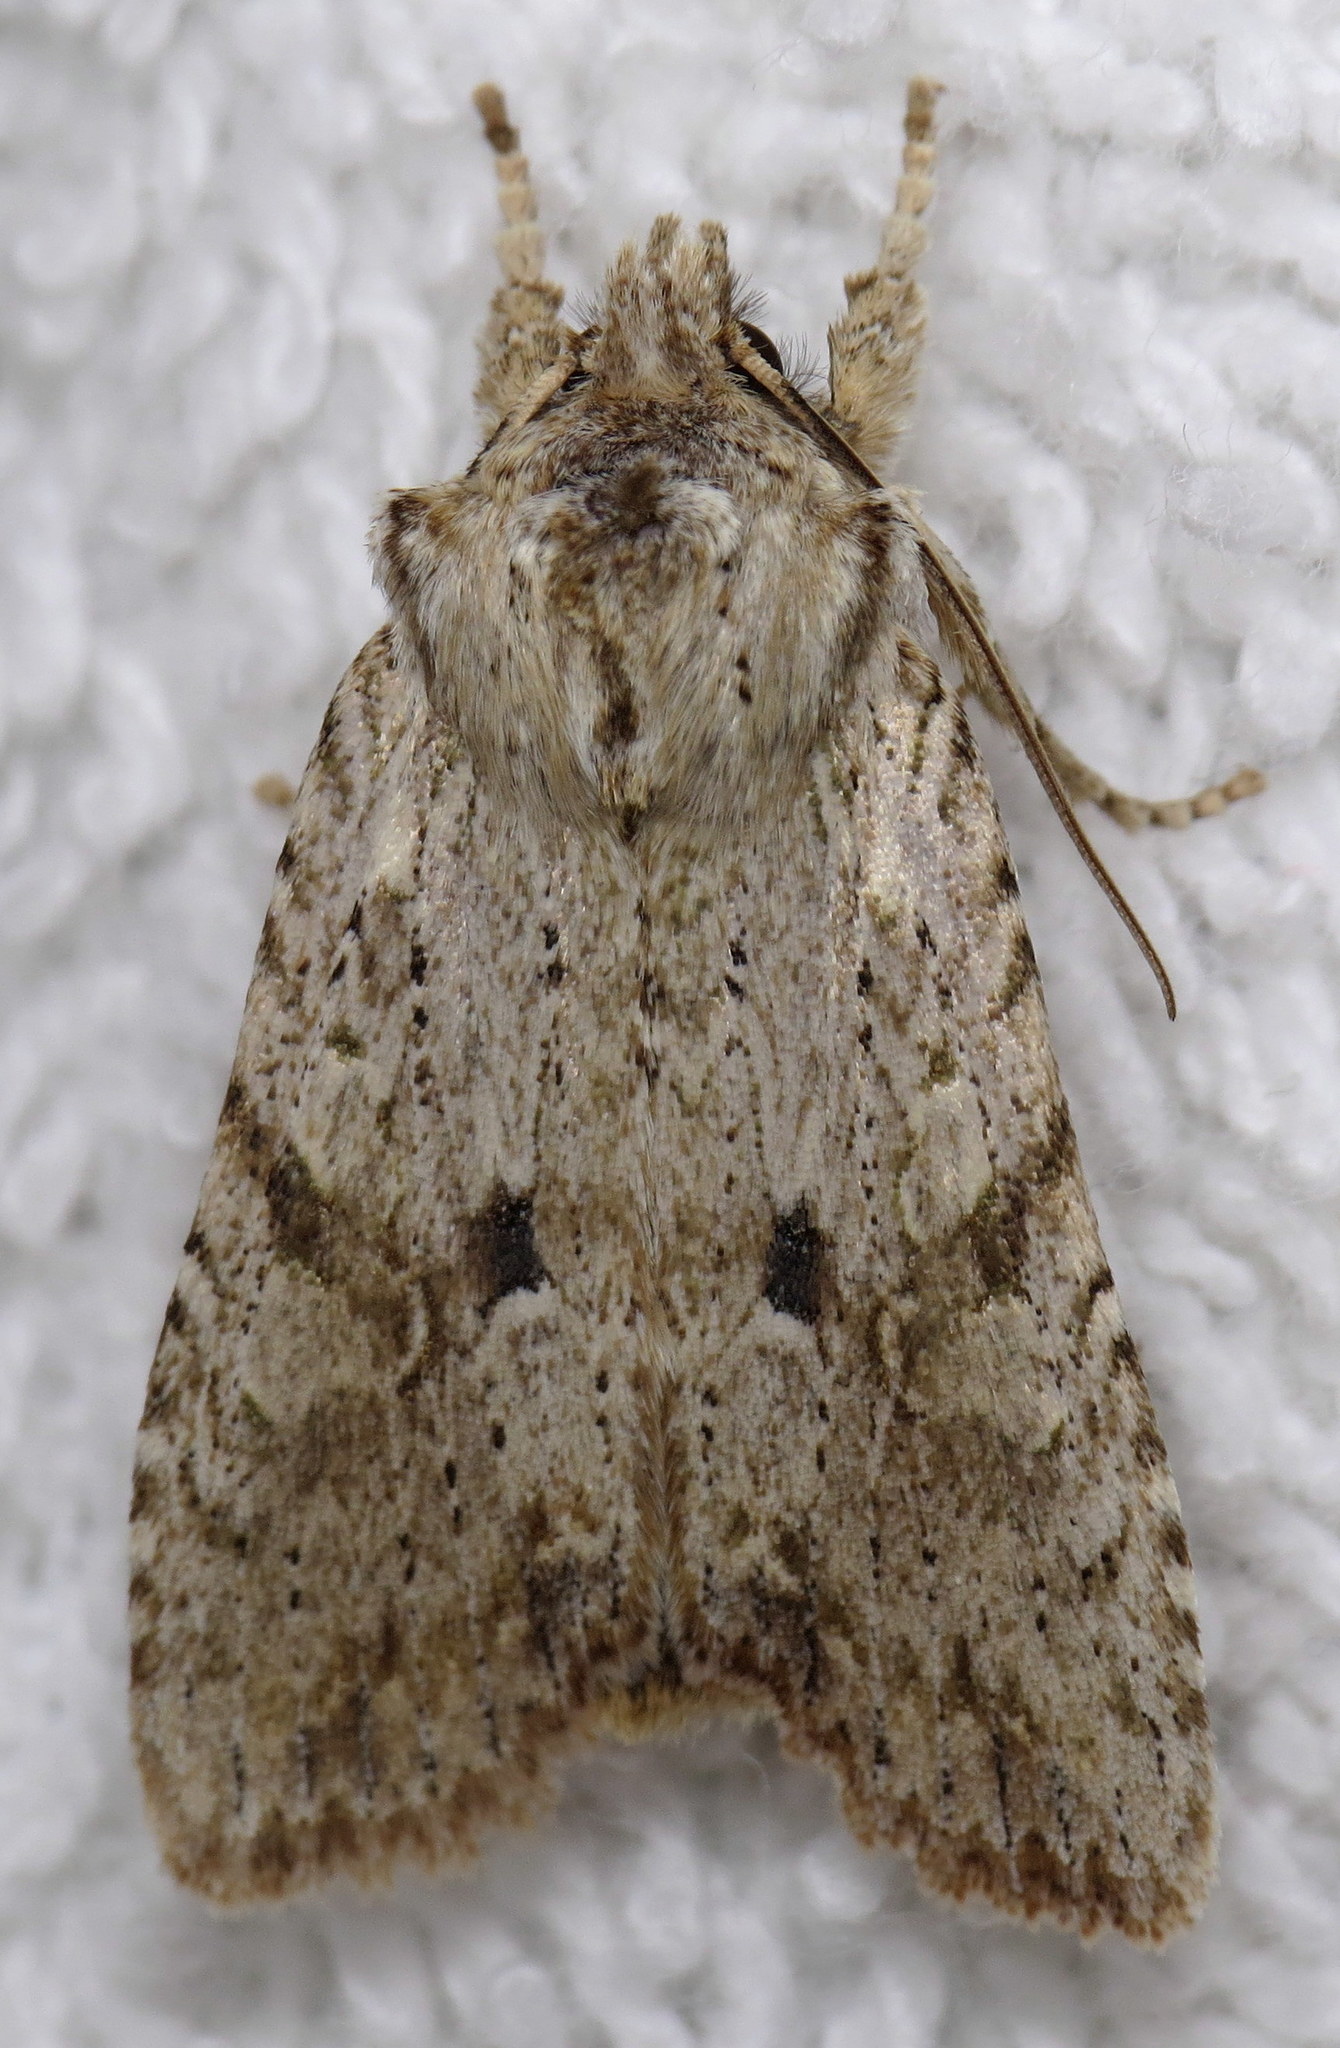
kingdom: Animalia
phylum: Arthropoda
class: Insecta
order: Lepidoptera
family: Noctuidae
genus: Lithophane
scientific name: Lithophane patefacta
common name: Dimorphic pinion moth
